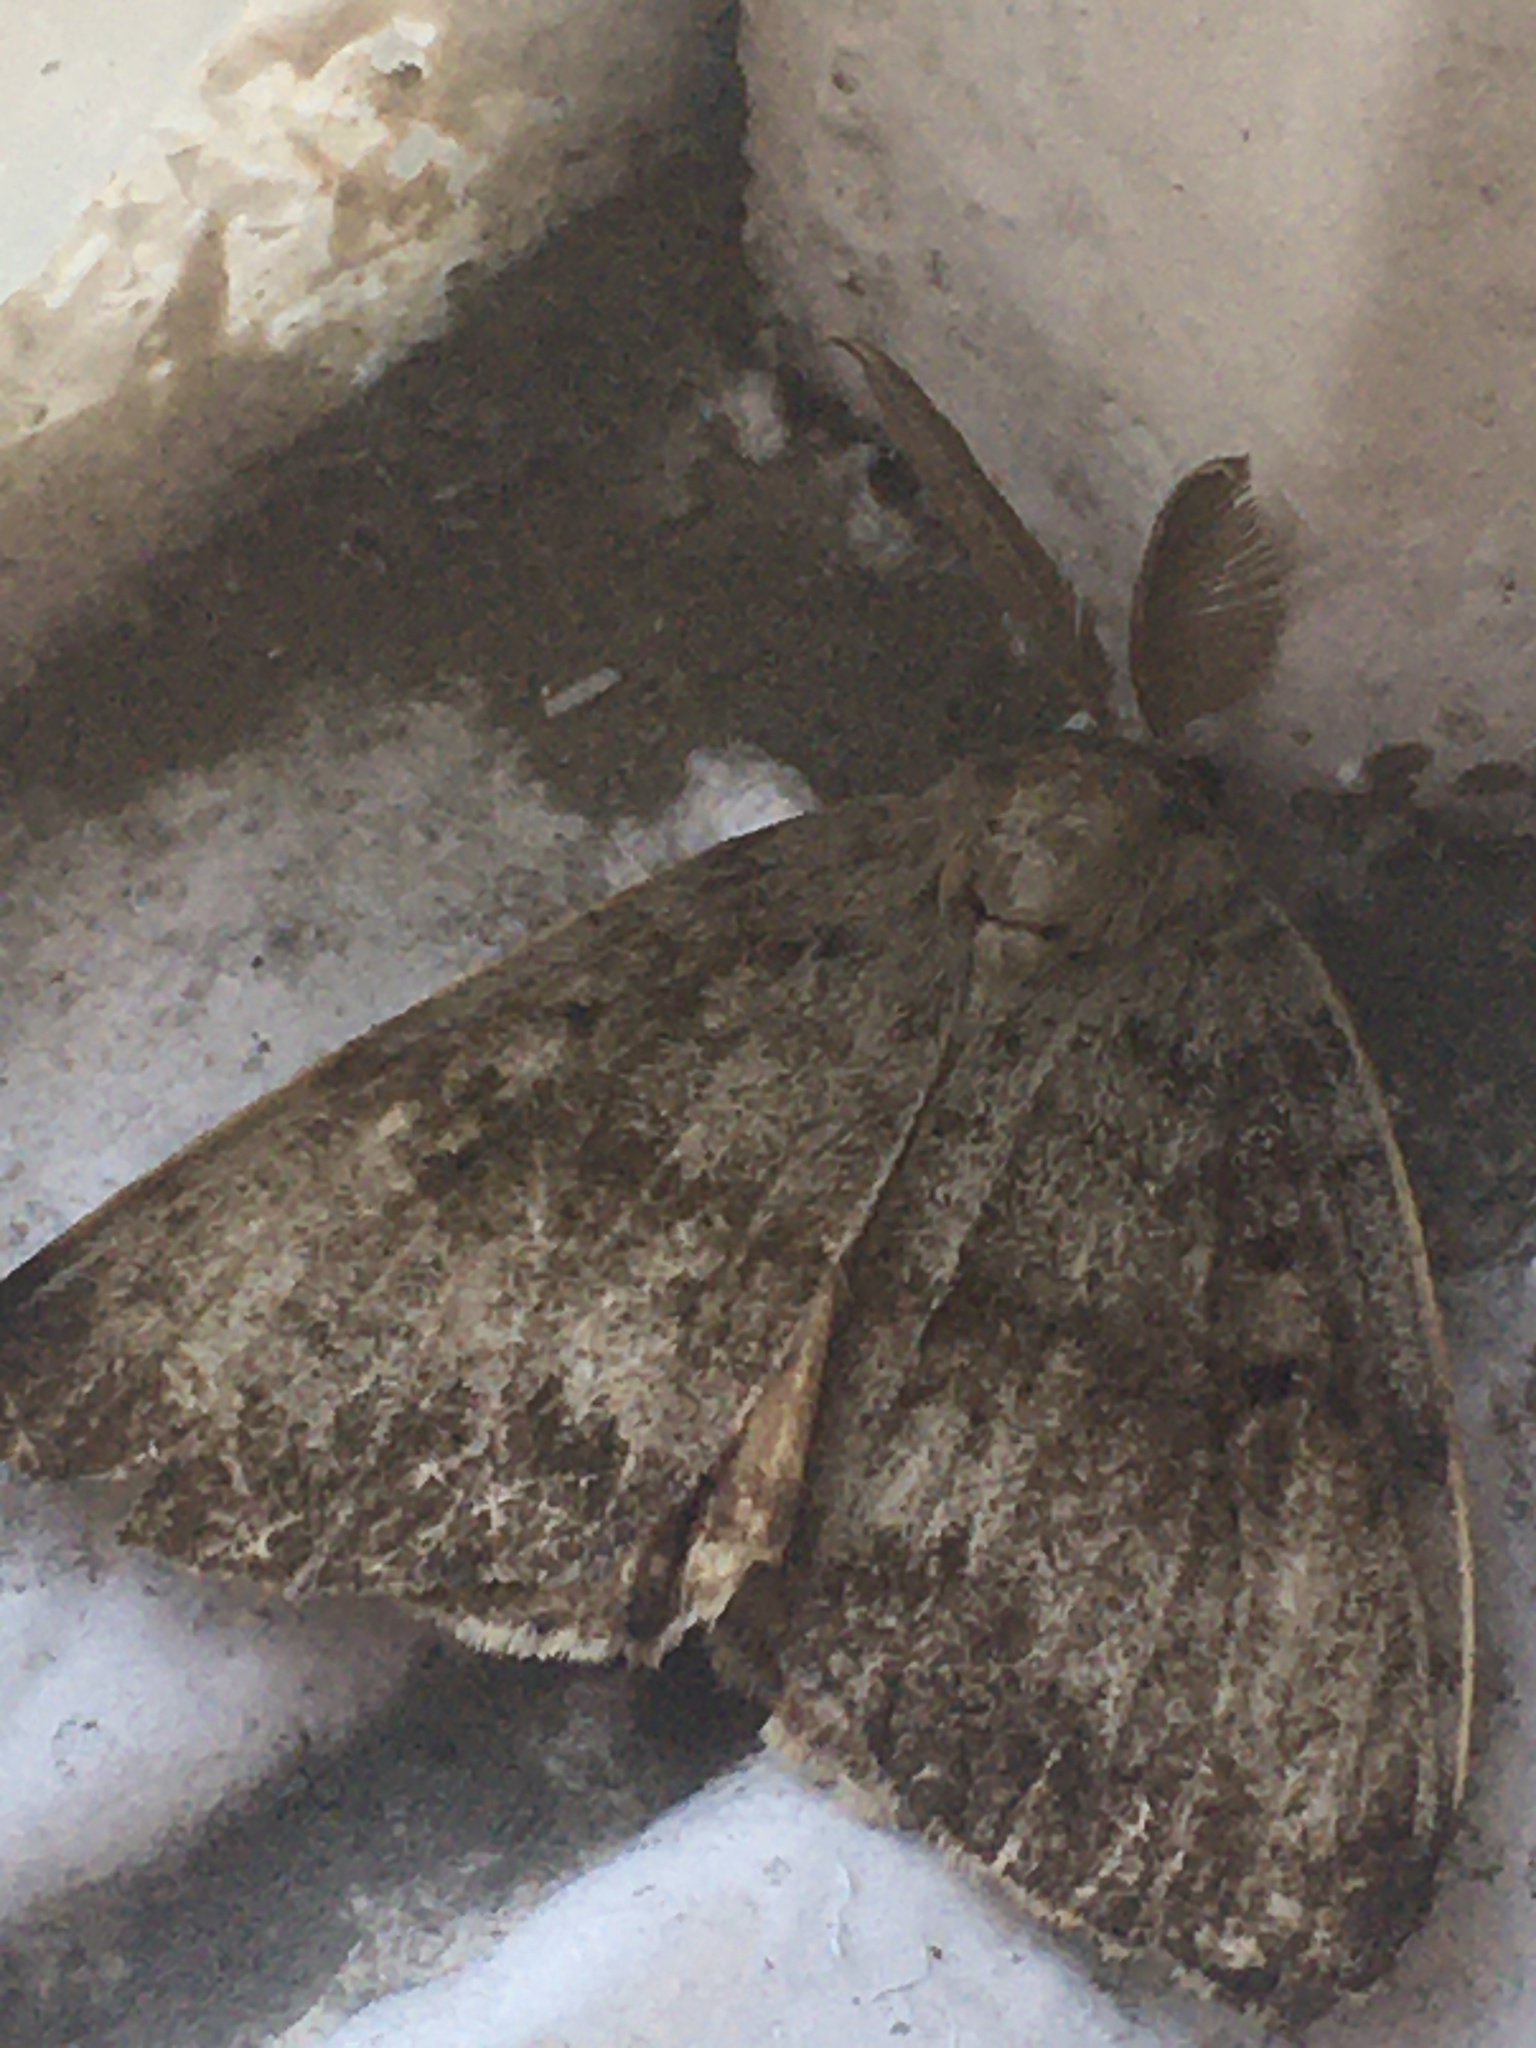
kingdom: Animalia
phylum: Arthropoda
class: Insecta
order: Lepidoptera
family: Erebidae
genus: Lymantria
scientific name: Lymantria dispar
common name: Gypsy moth
